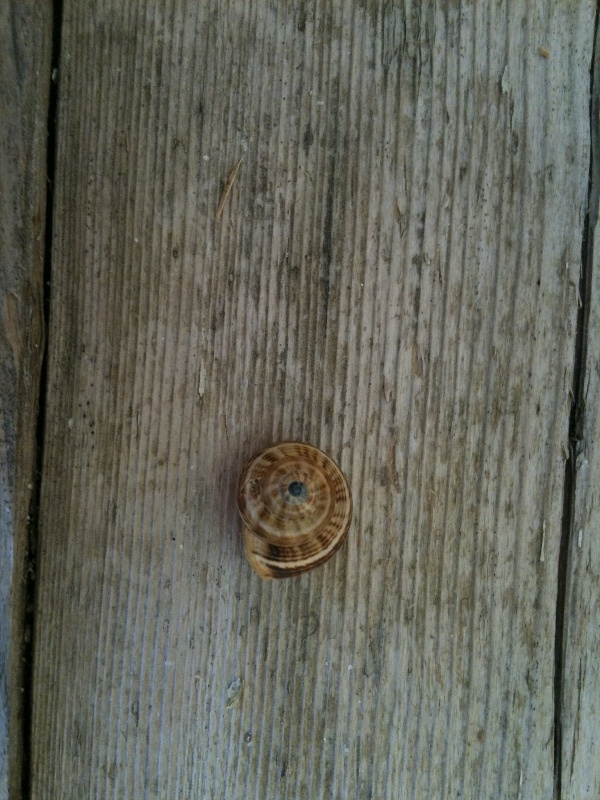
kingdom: Animalia
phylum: Mollusca
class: Gastropoda
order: Stylommatophora
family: Helicidae
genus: Theba
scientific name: Theba pisana
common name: White snail
